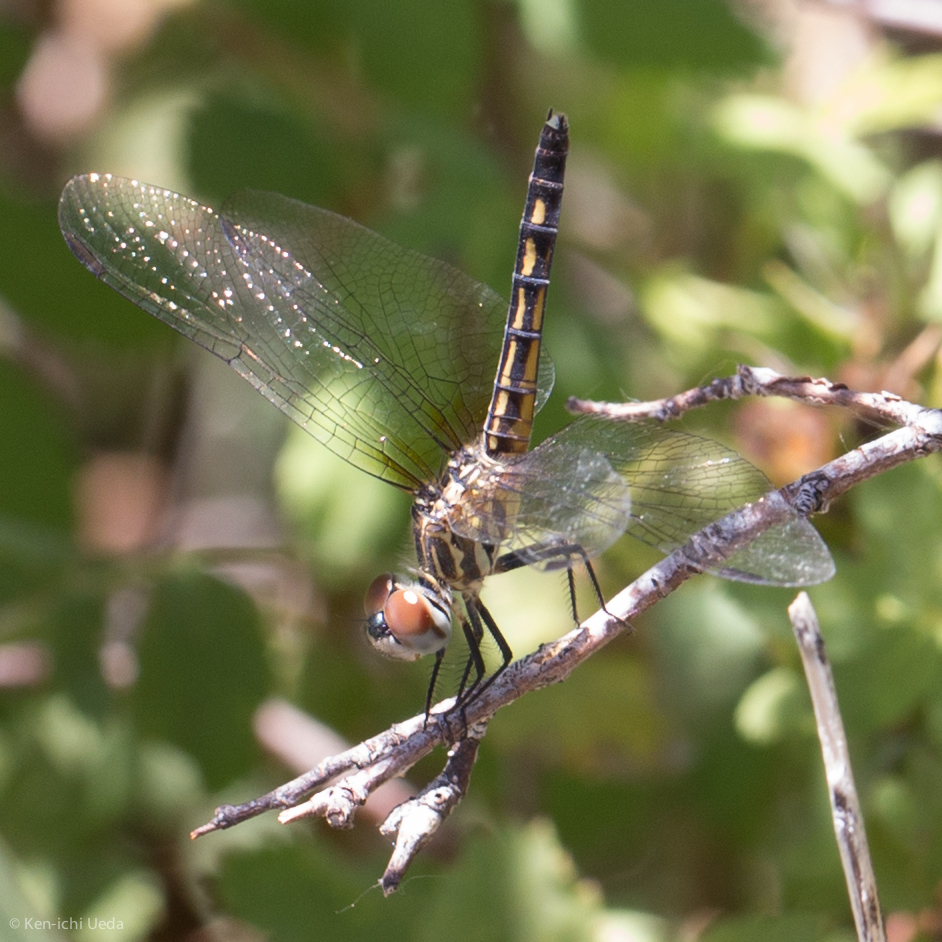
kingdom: Animalia
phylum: Arthropoda
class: Insecta
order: Odonata
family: Libellulidae
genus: Pachydiplax
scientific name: Pachydiplax longipennis
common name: Blue dasher
